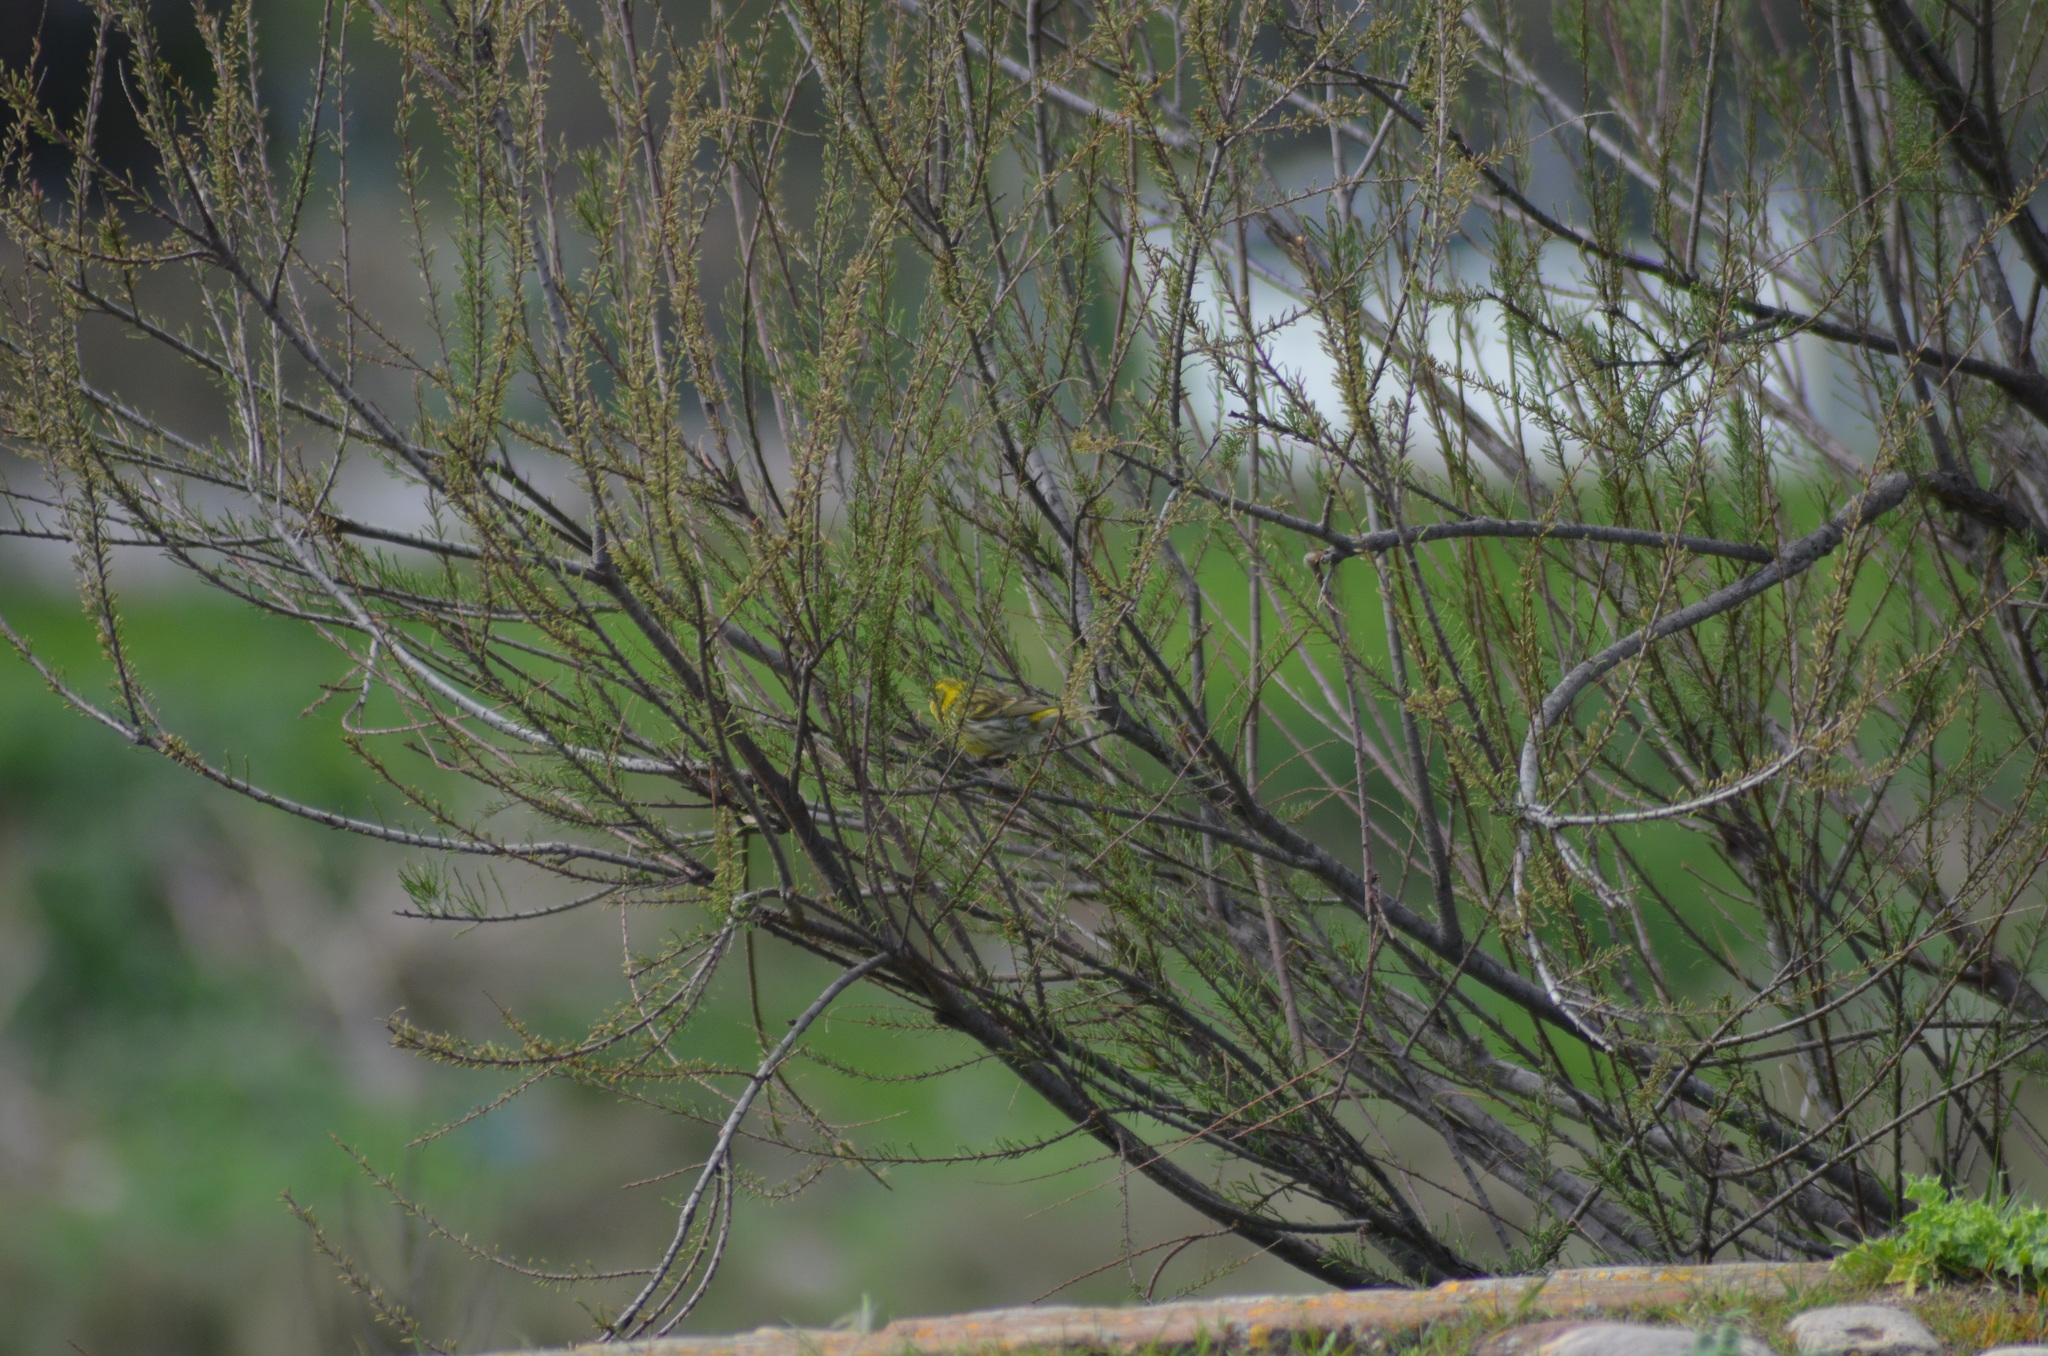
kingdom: Animalia
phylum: Chordata
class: Aves
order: Passeriformes
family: Fringillidae
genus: Serinus
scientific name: Serinus serinus
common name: European serin
